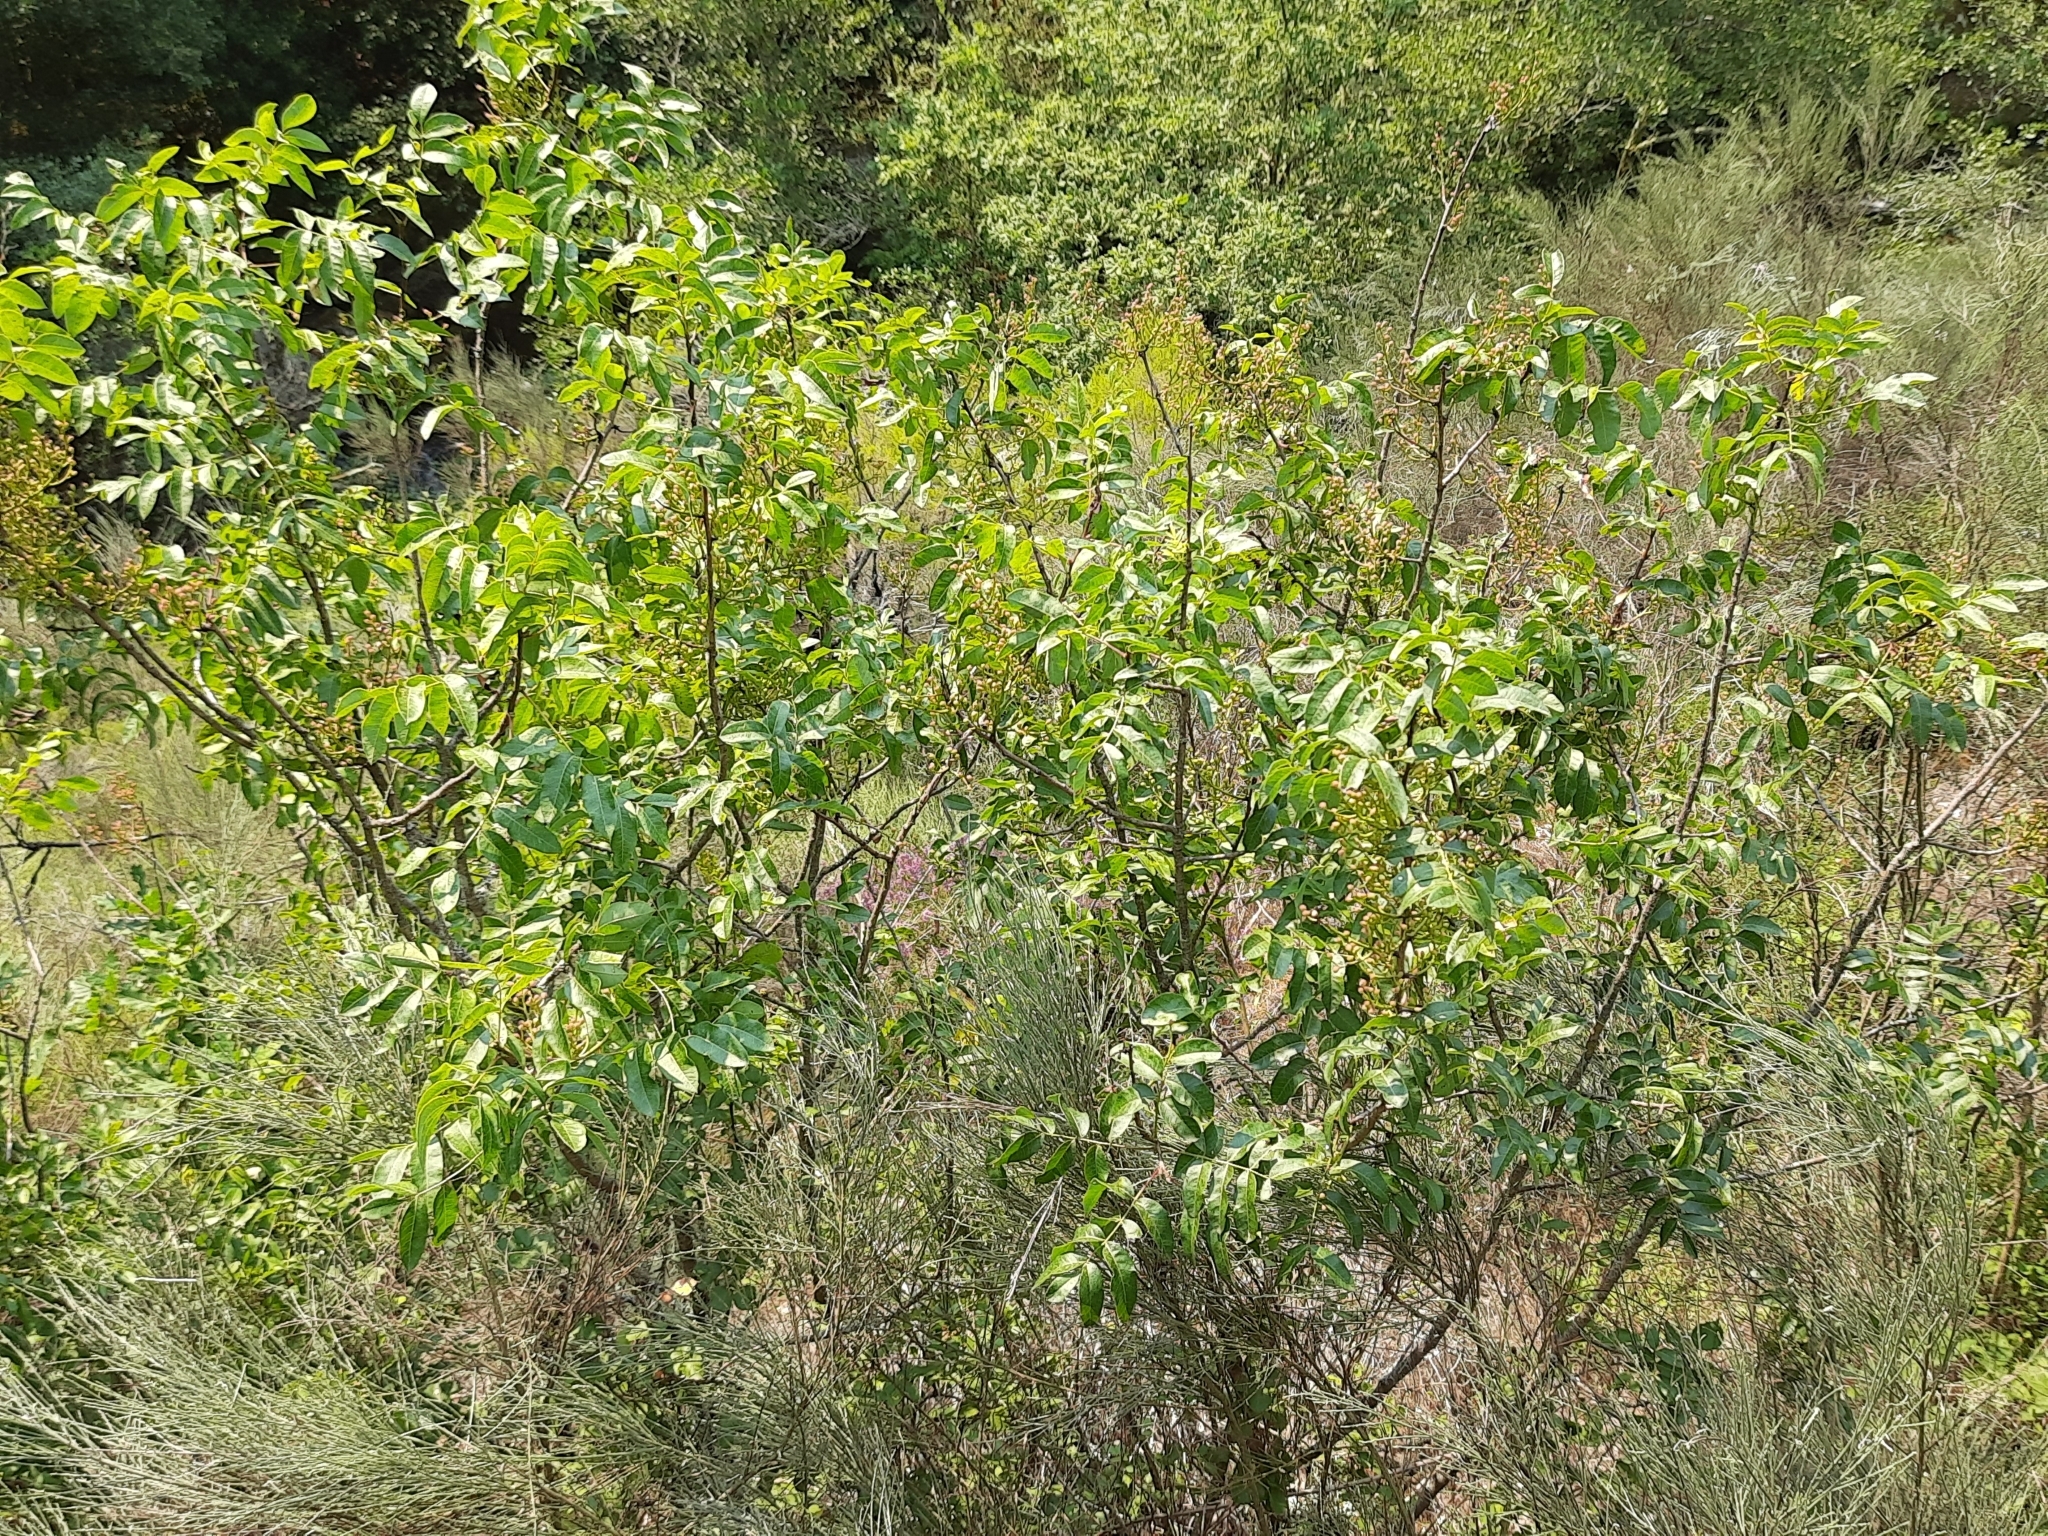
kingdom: Plantae
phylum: Tracheophyta
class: Magnoliopsida
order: Sapindales
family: Anacardiaceae
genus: Pistacia
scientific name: Pistacia terebinthus
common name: Terebinth
